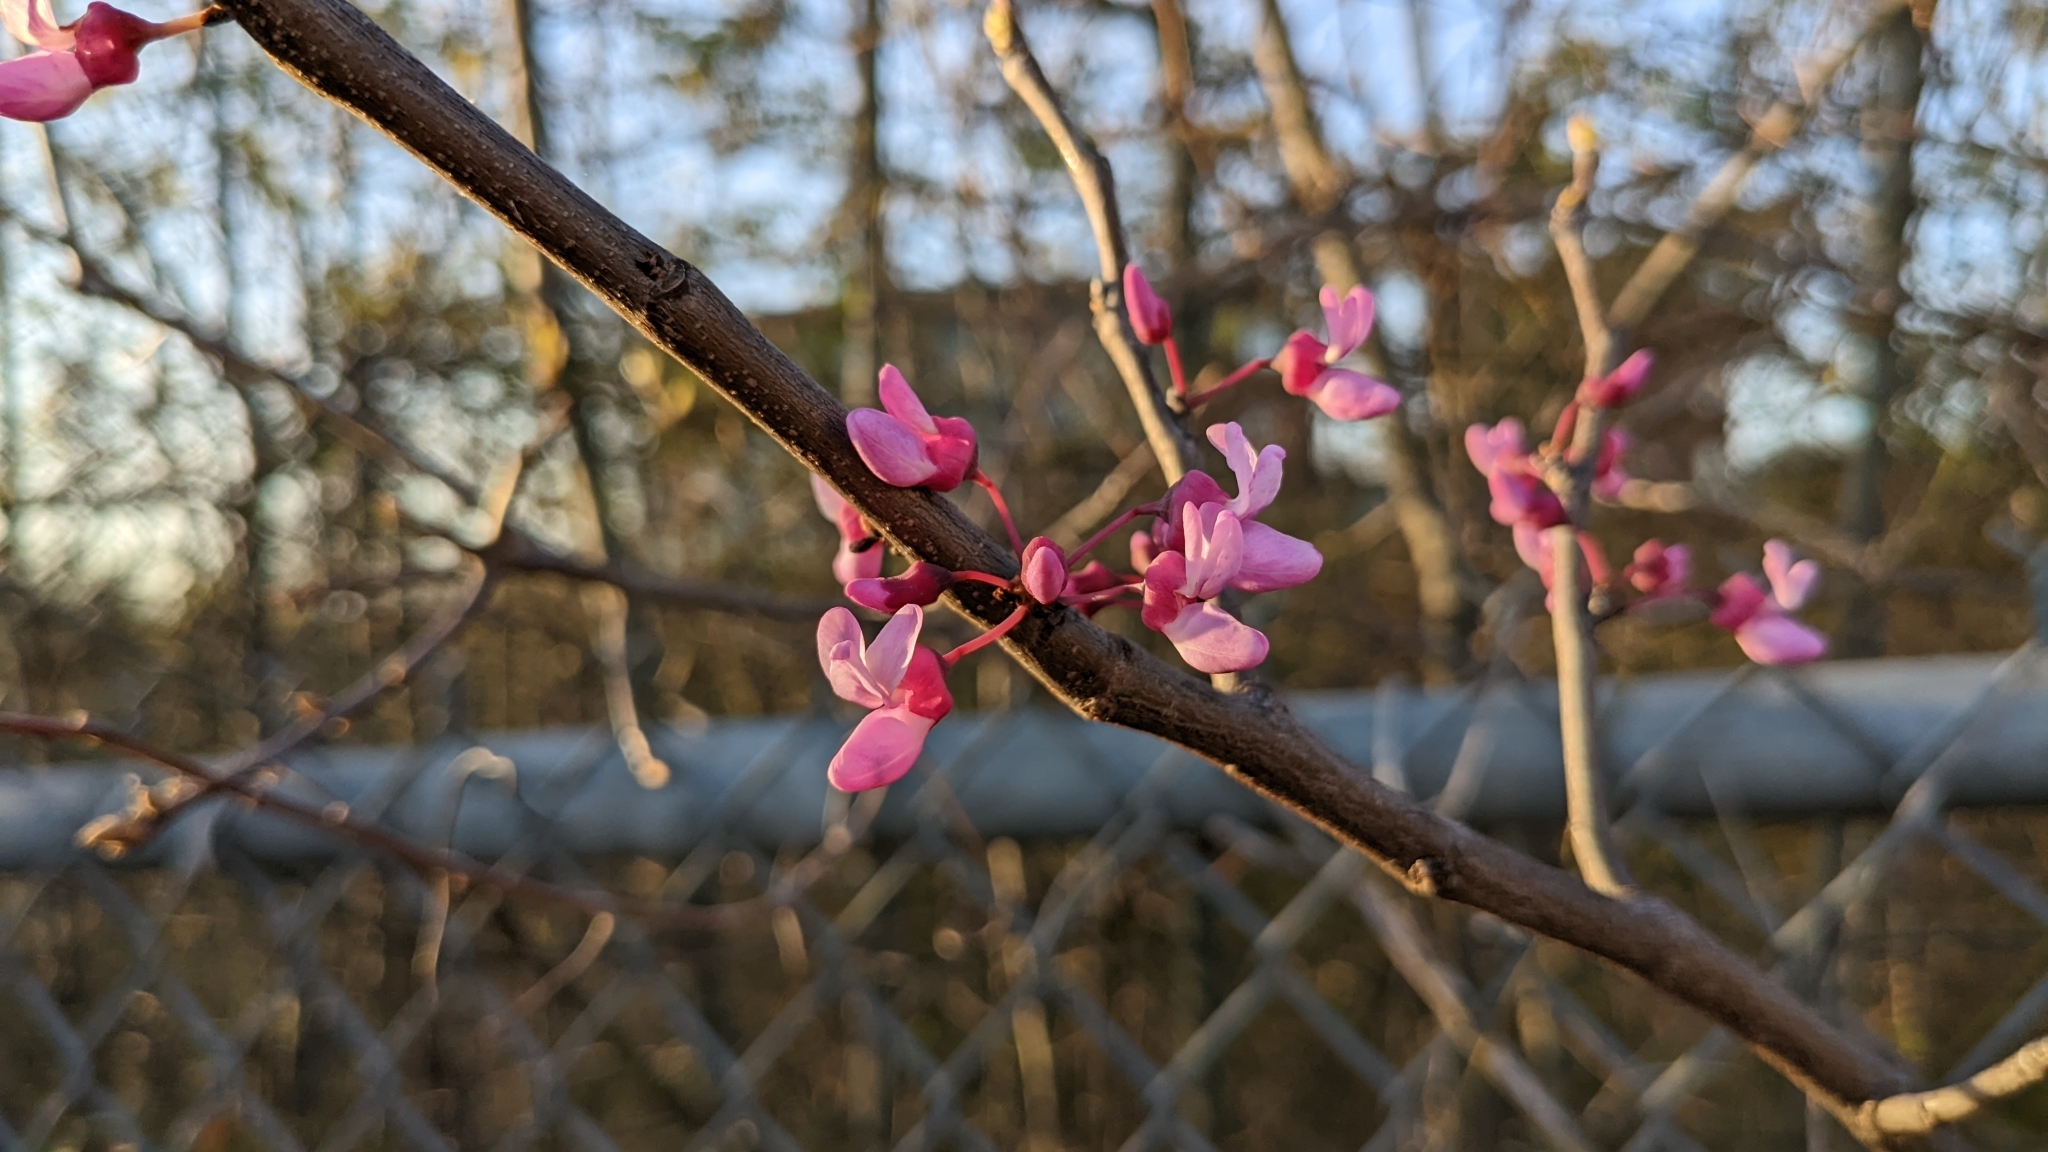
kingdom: Plantae
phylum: Tracheophyta
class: Magnoliopsida
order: Fabales
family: Fabaceae
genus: Cercis
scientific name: Cercis canadensis
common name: Eastern redbud
